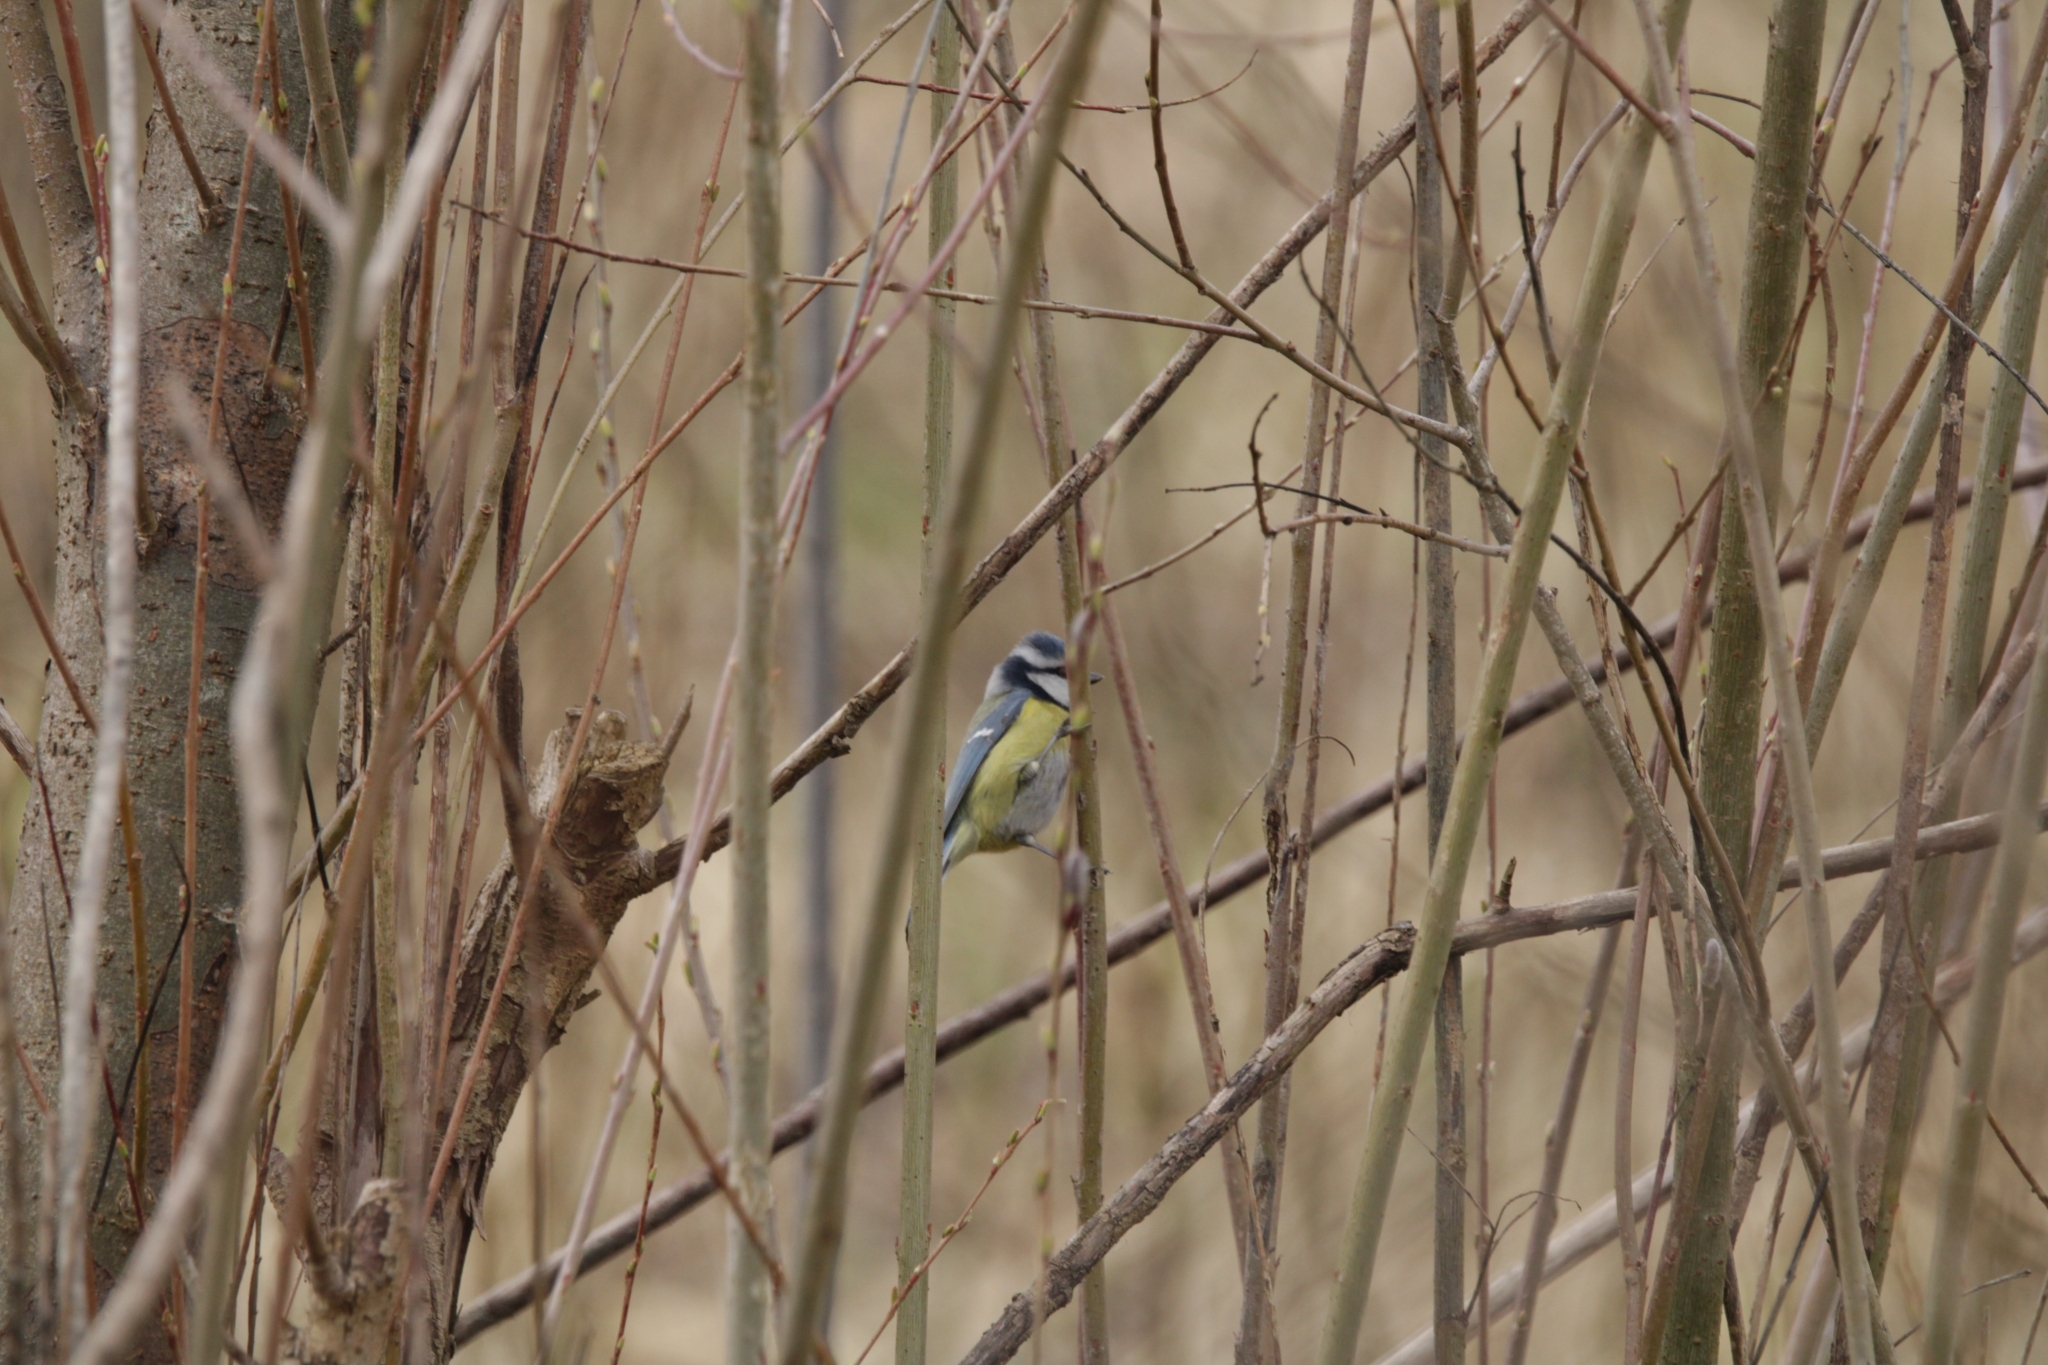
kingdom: Animalia
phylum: Chordata
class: Aves
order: Passeriformes
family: Paridae
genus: Cyanistes
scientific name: Cyanistes caeruleus
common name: Eurasian blue tit
